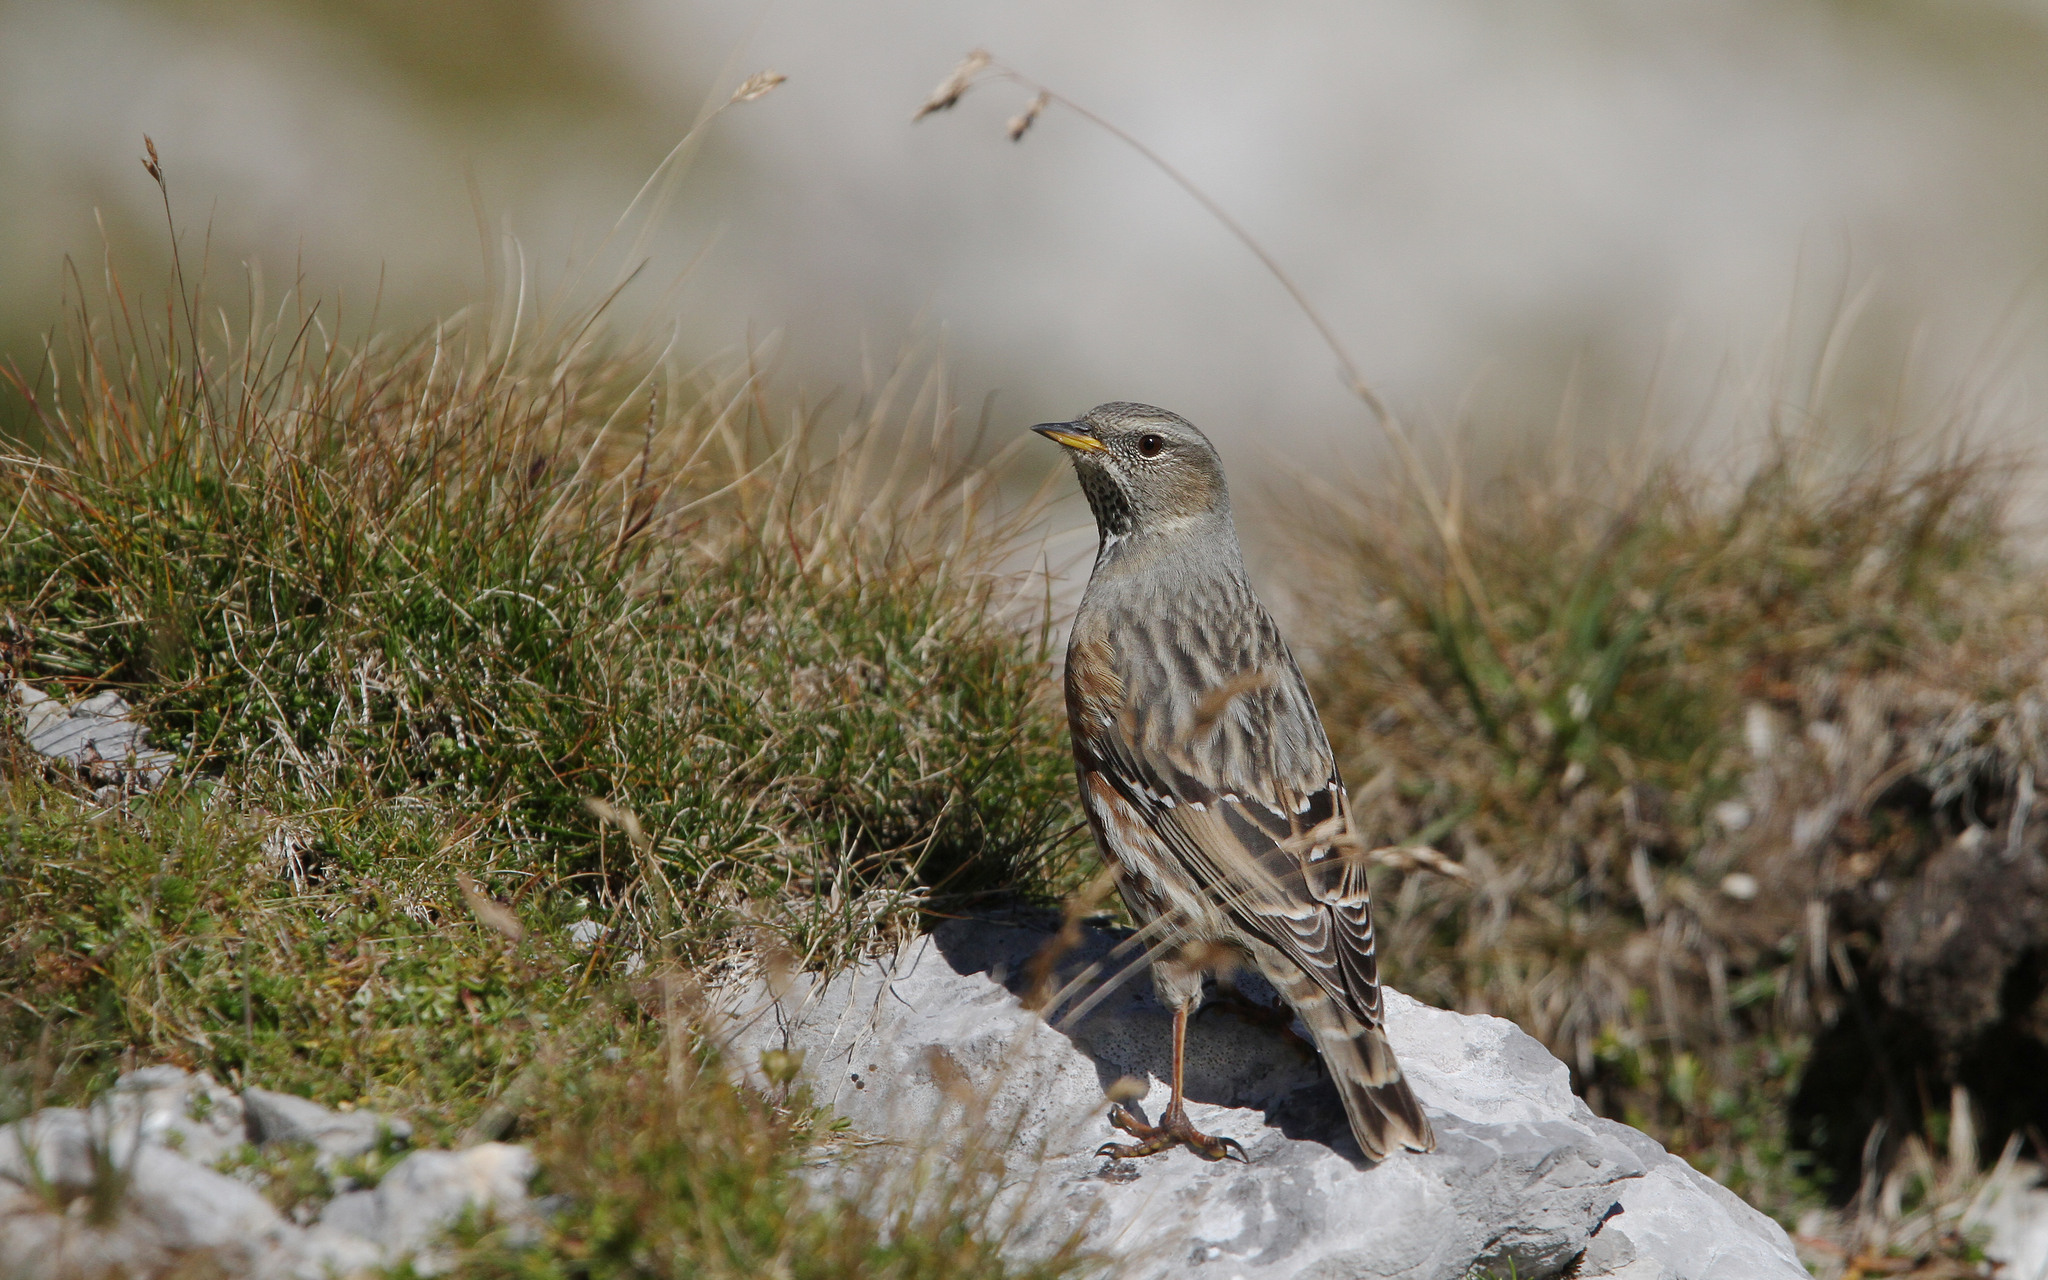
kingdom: Animalia
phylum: Chordata
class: Aves
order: Passeriformes
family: Prunellidae
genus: Prunella
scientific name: Prunella collaris
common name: Alpine accentor
